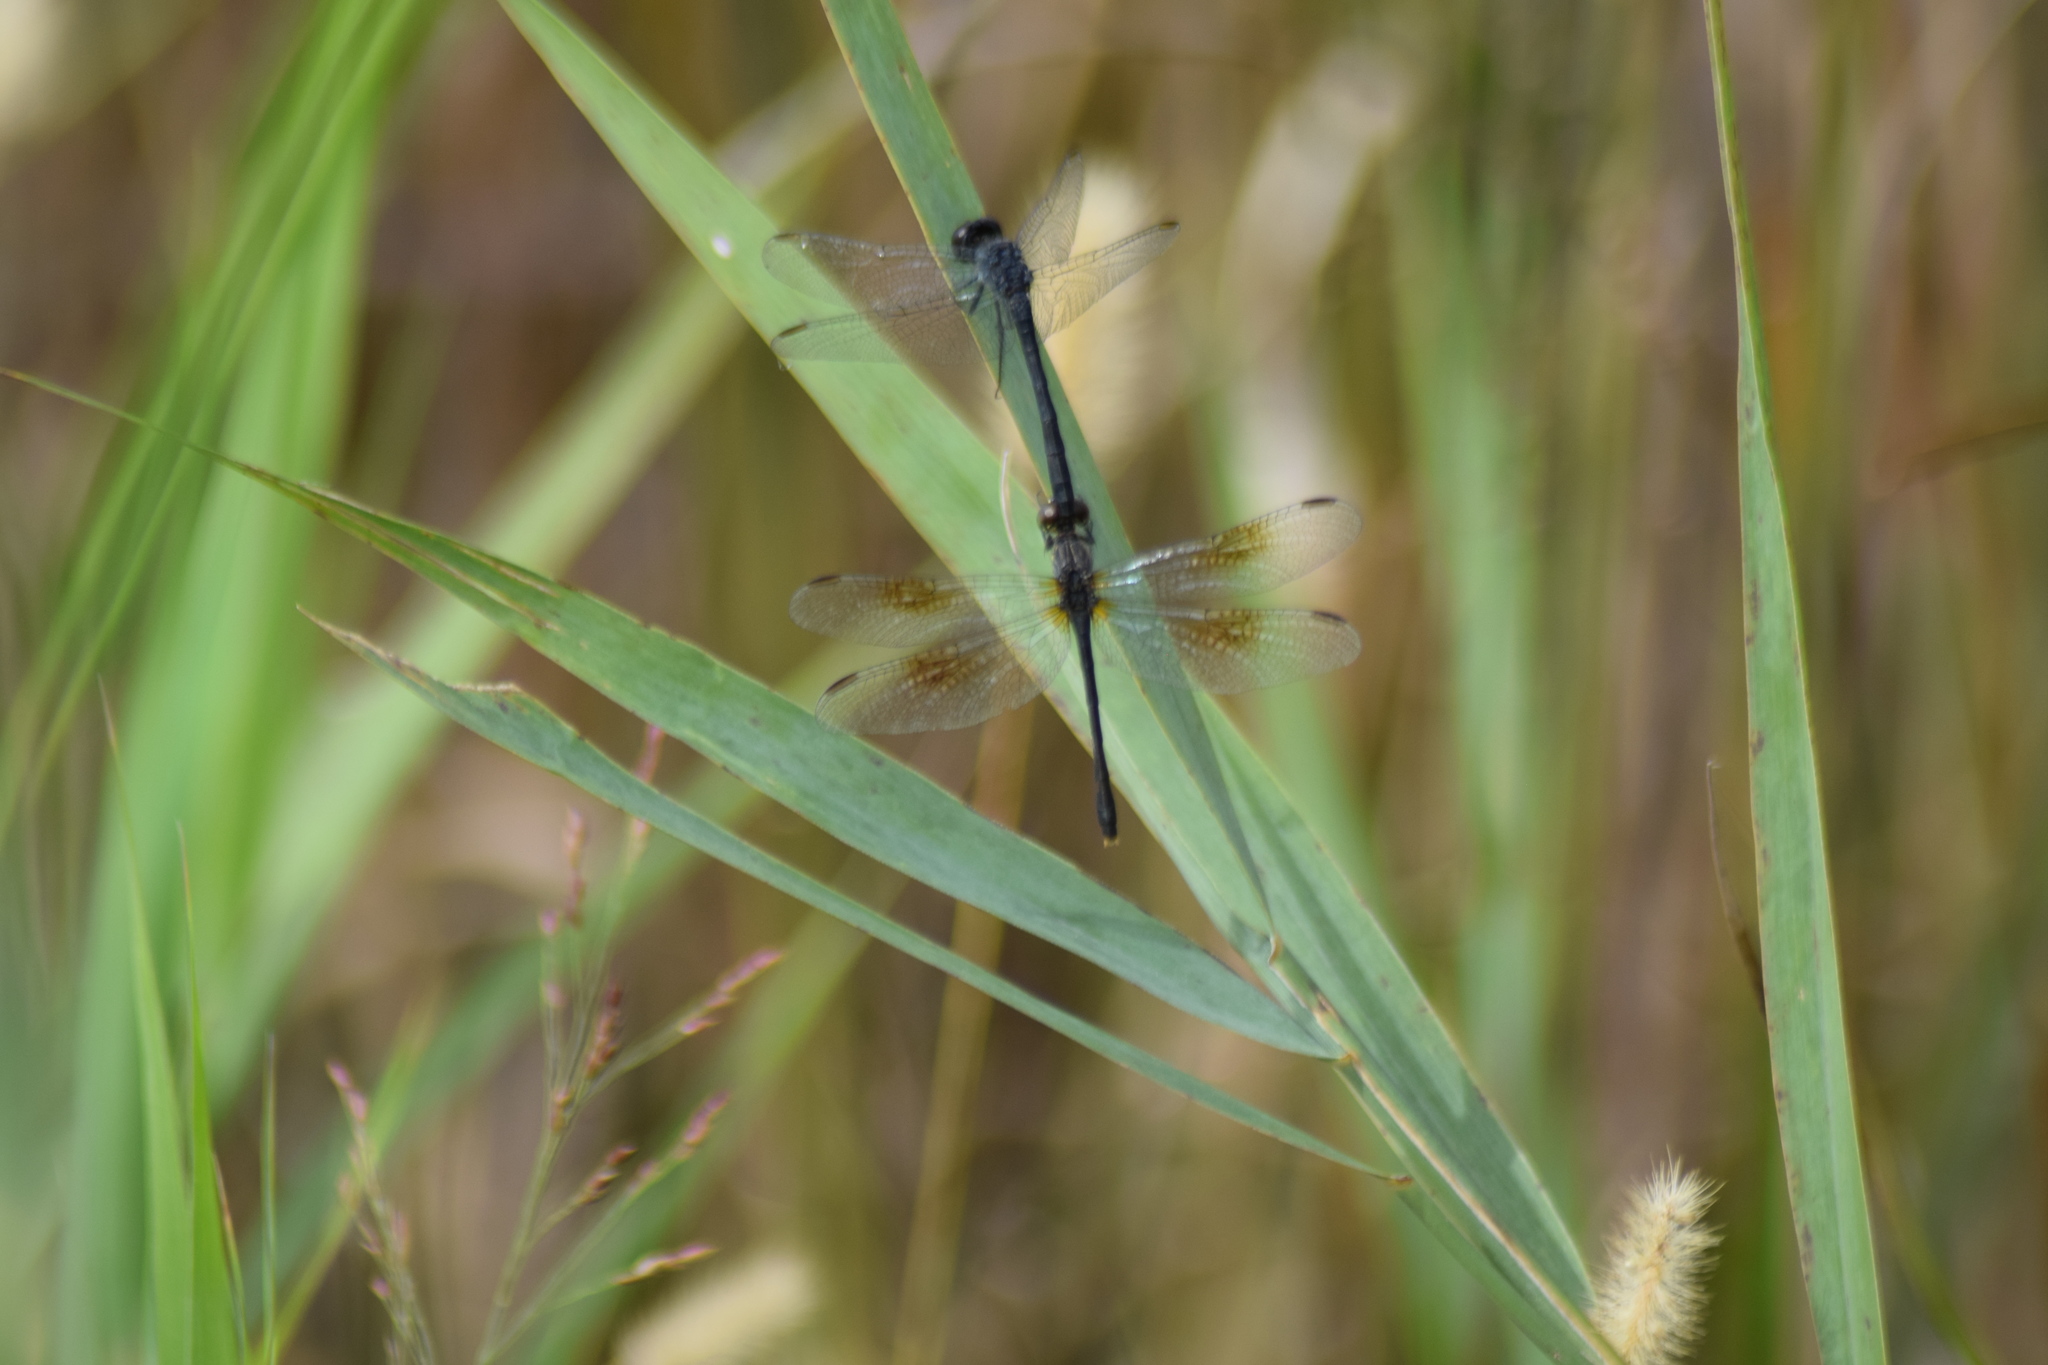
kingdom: Animalia
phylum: Arthropoda
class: Insecta
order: Odonata
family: Libellulidae
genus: Erythrodiplax
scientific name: Erythrodiplax berenice
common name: Seaside dragonlet
